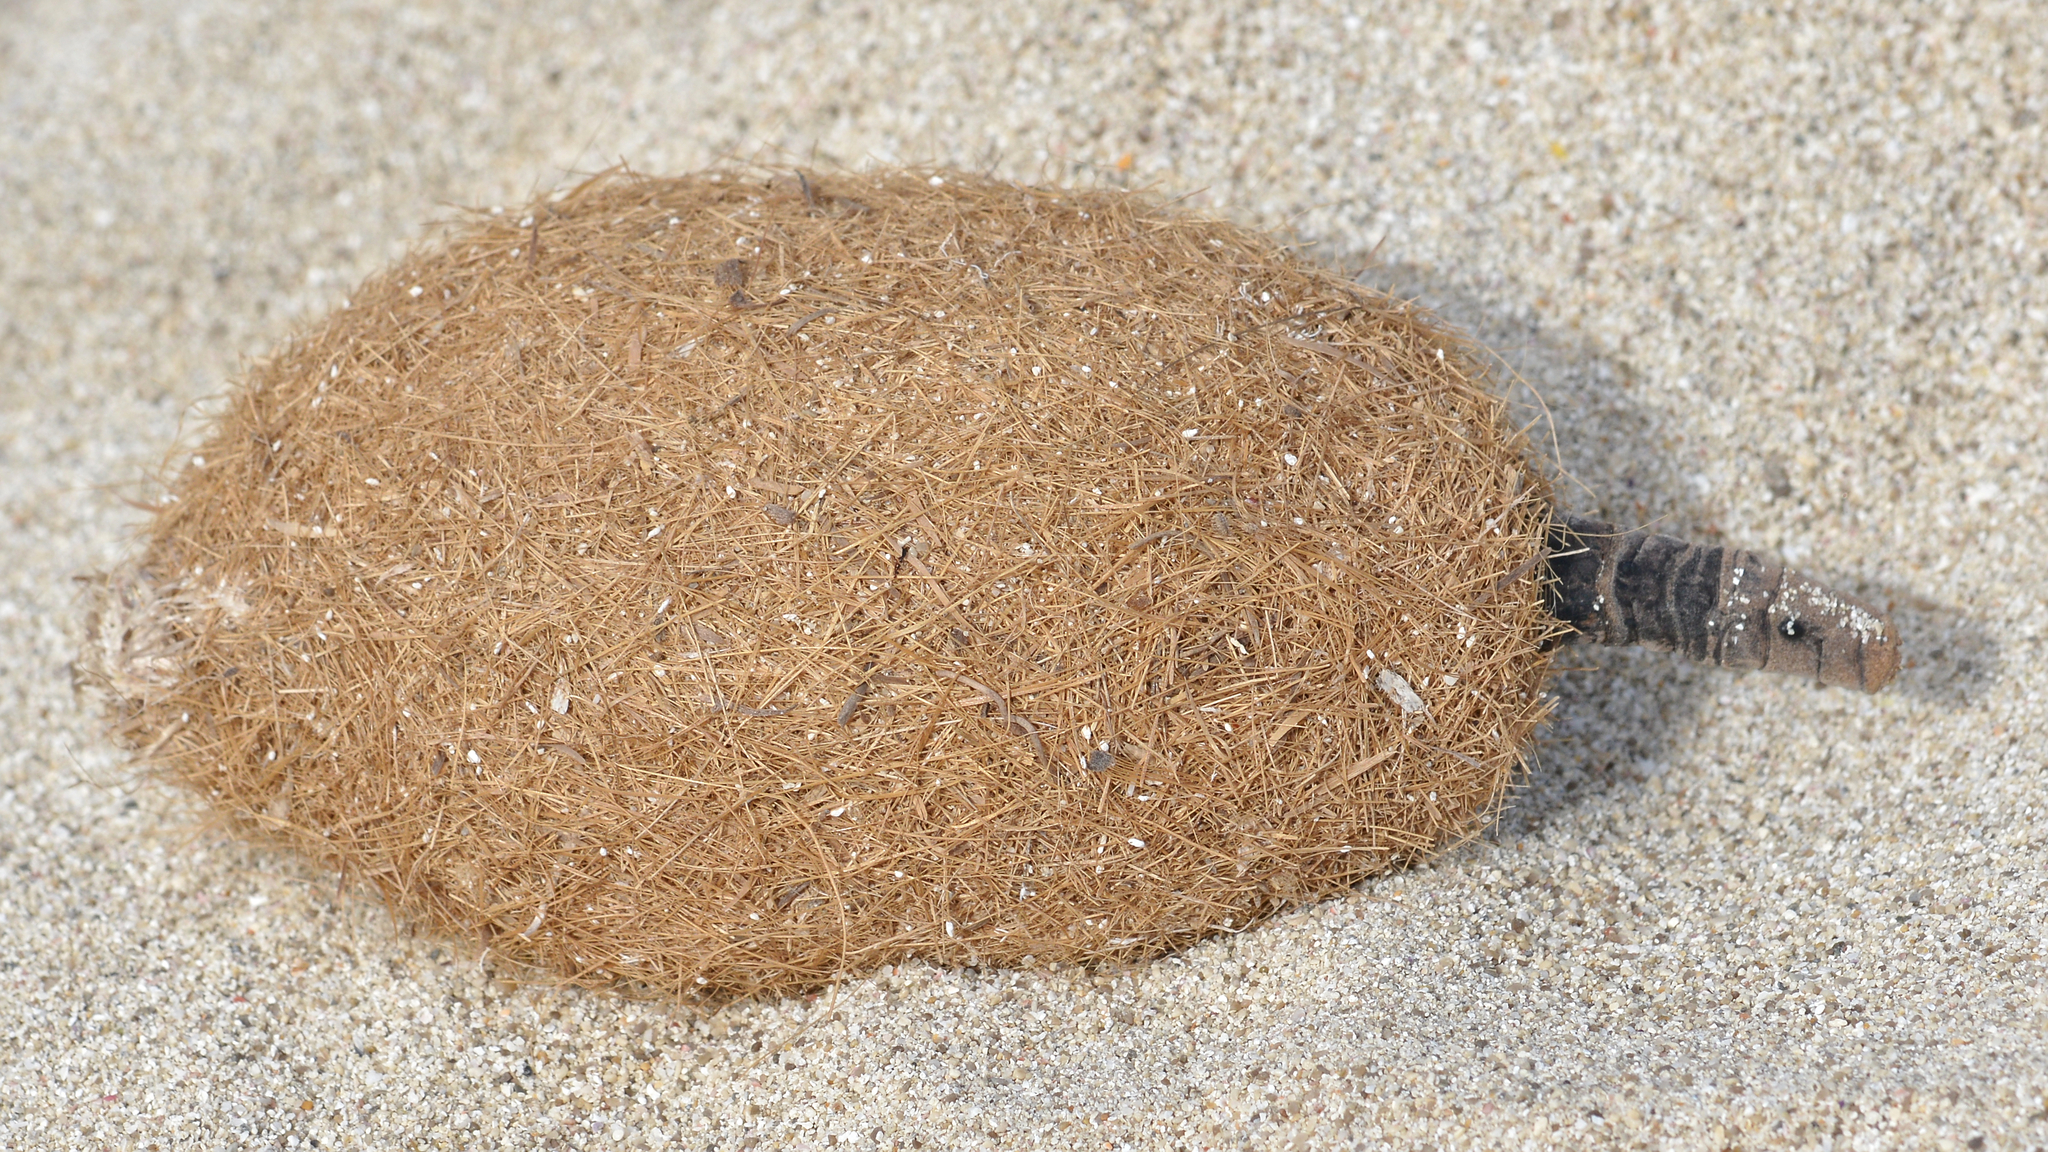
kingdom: Plantae
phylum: Tracheophyta
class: Liliopsida
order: Alismatales
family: Posidoniaceae
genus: Posidonia
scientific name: Posidonia oceanica
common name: Mediterranean tapeweed
